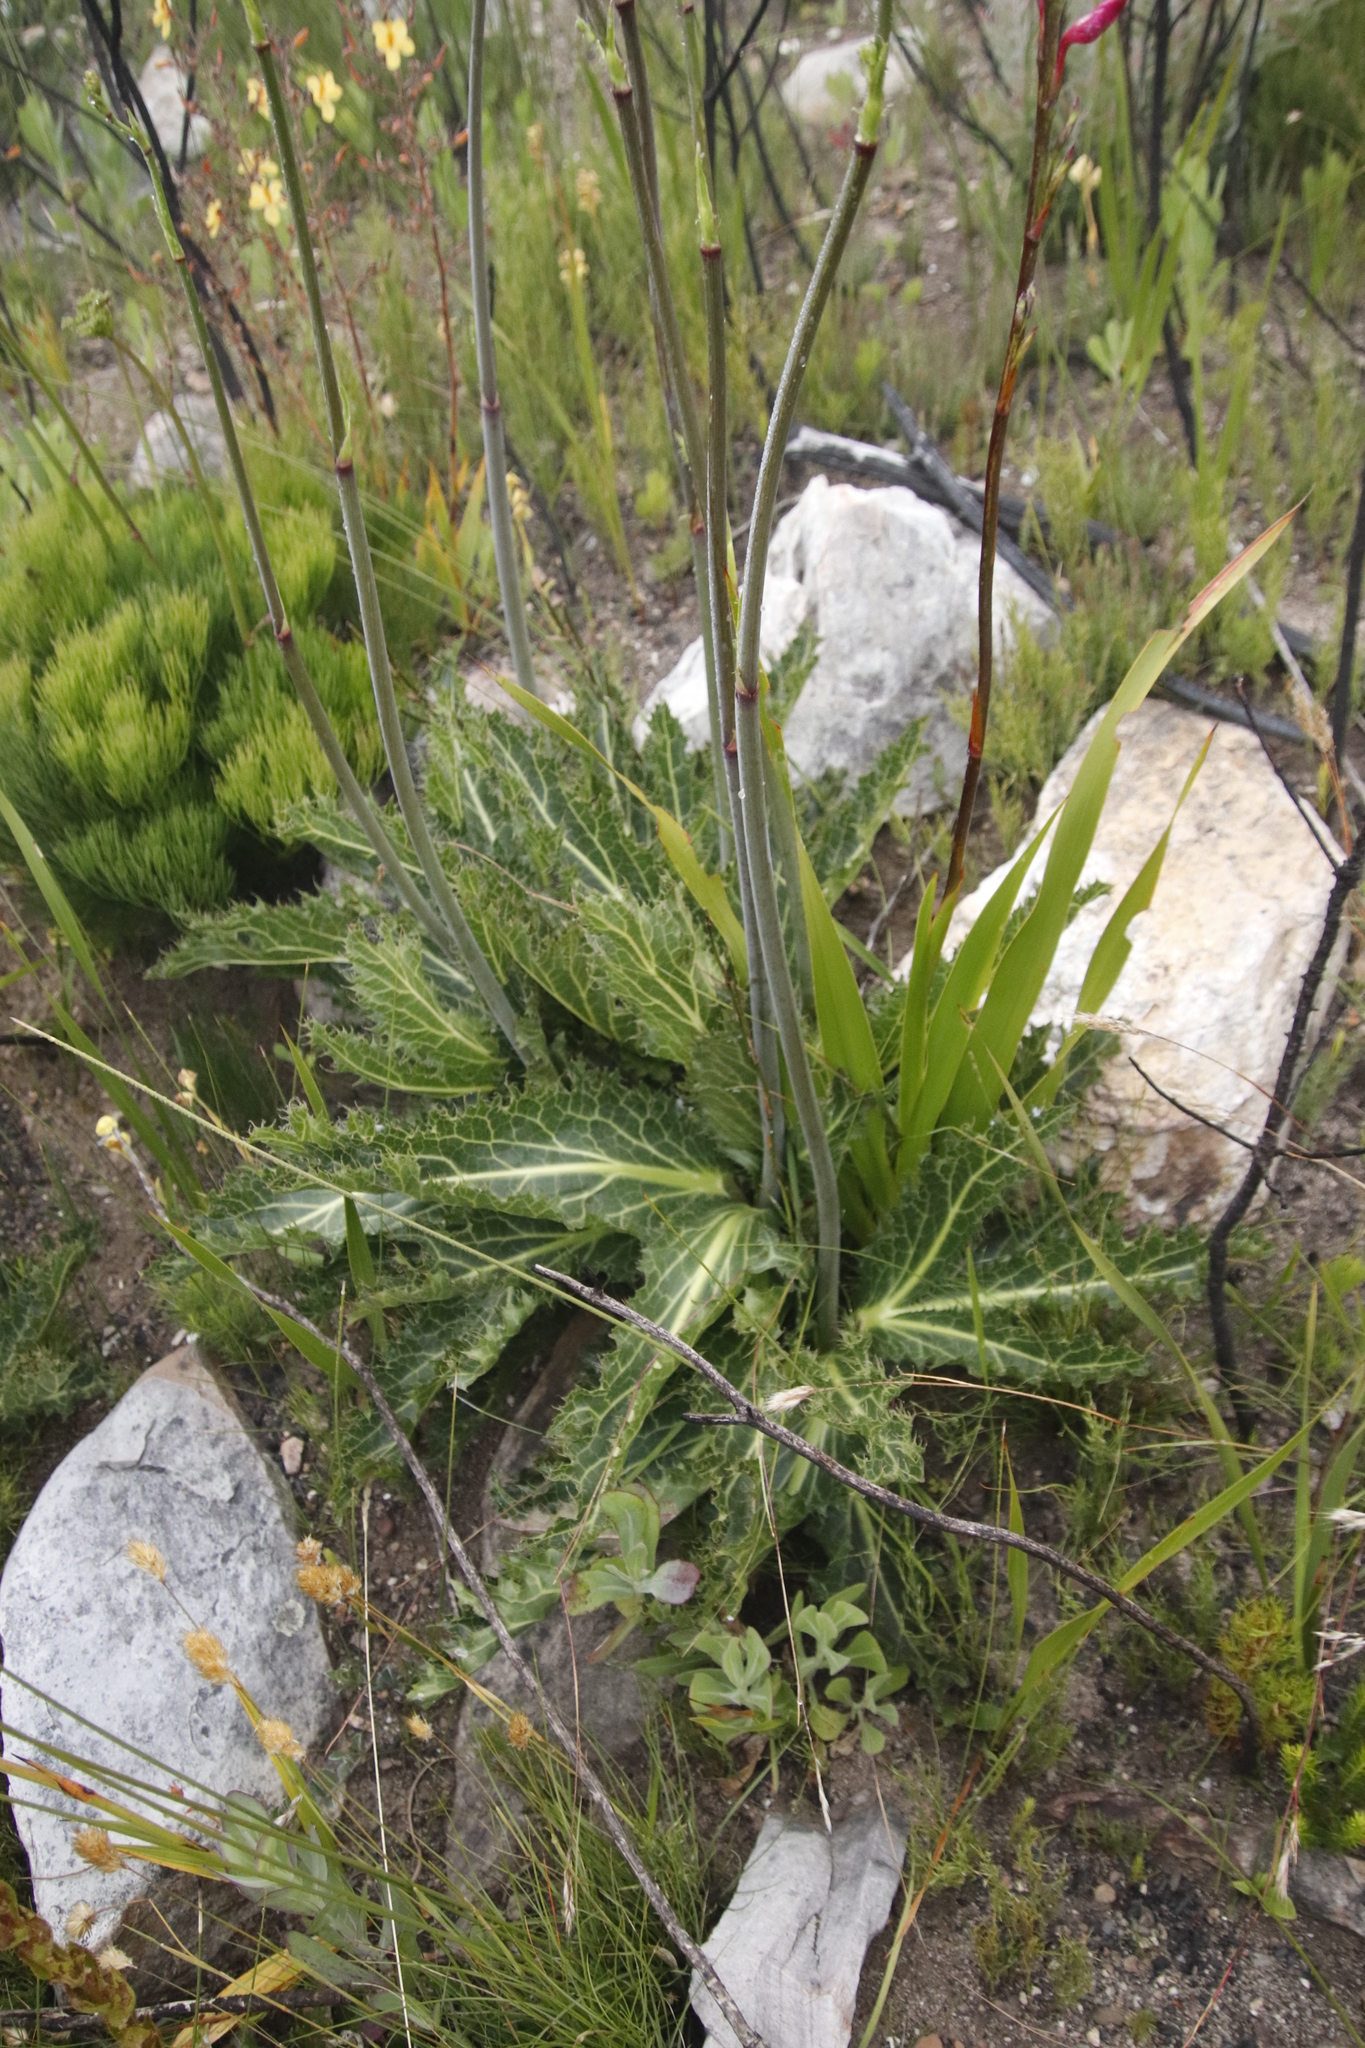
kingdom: Plantae
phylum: Tracheophyta
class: Magnoliopsida
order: Apiales
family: Apiaceae
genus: Lichtensteinia
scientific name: Lichtensteinia lacera
